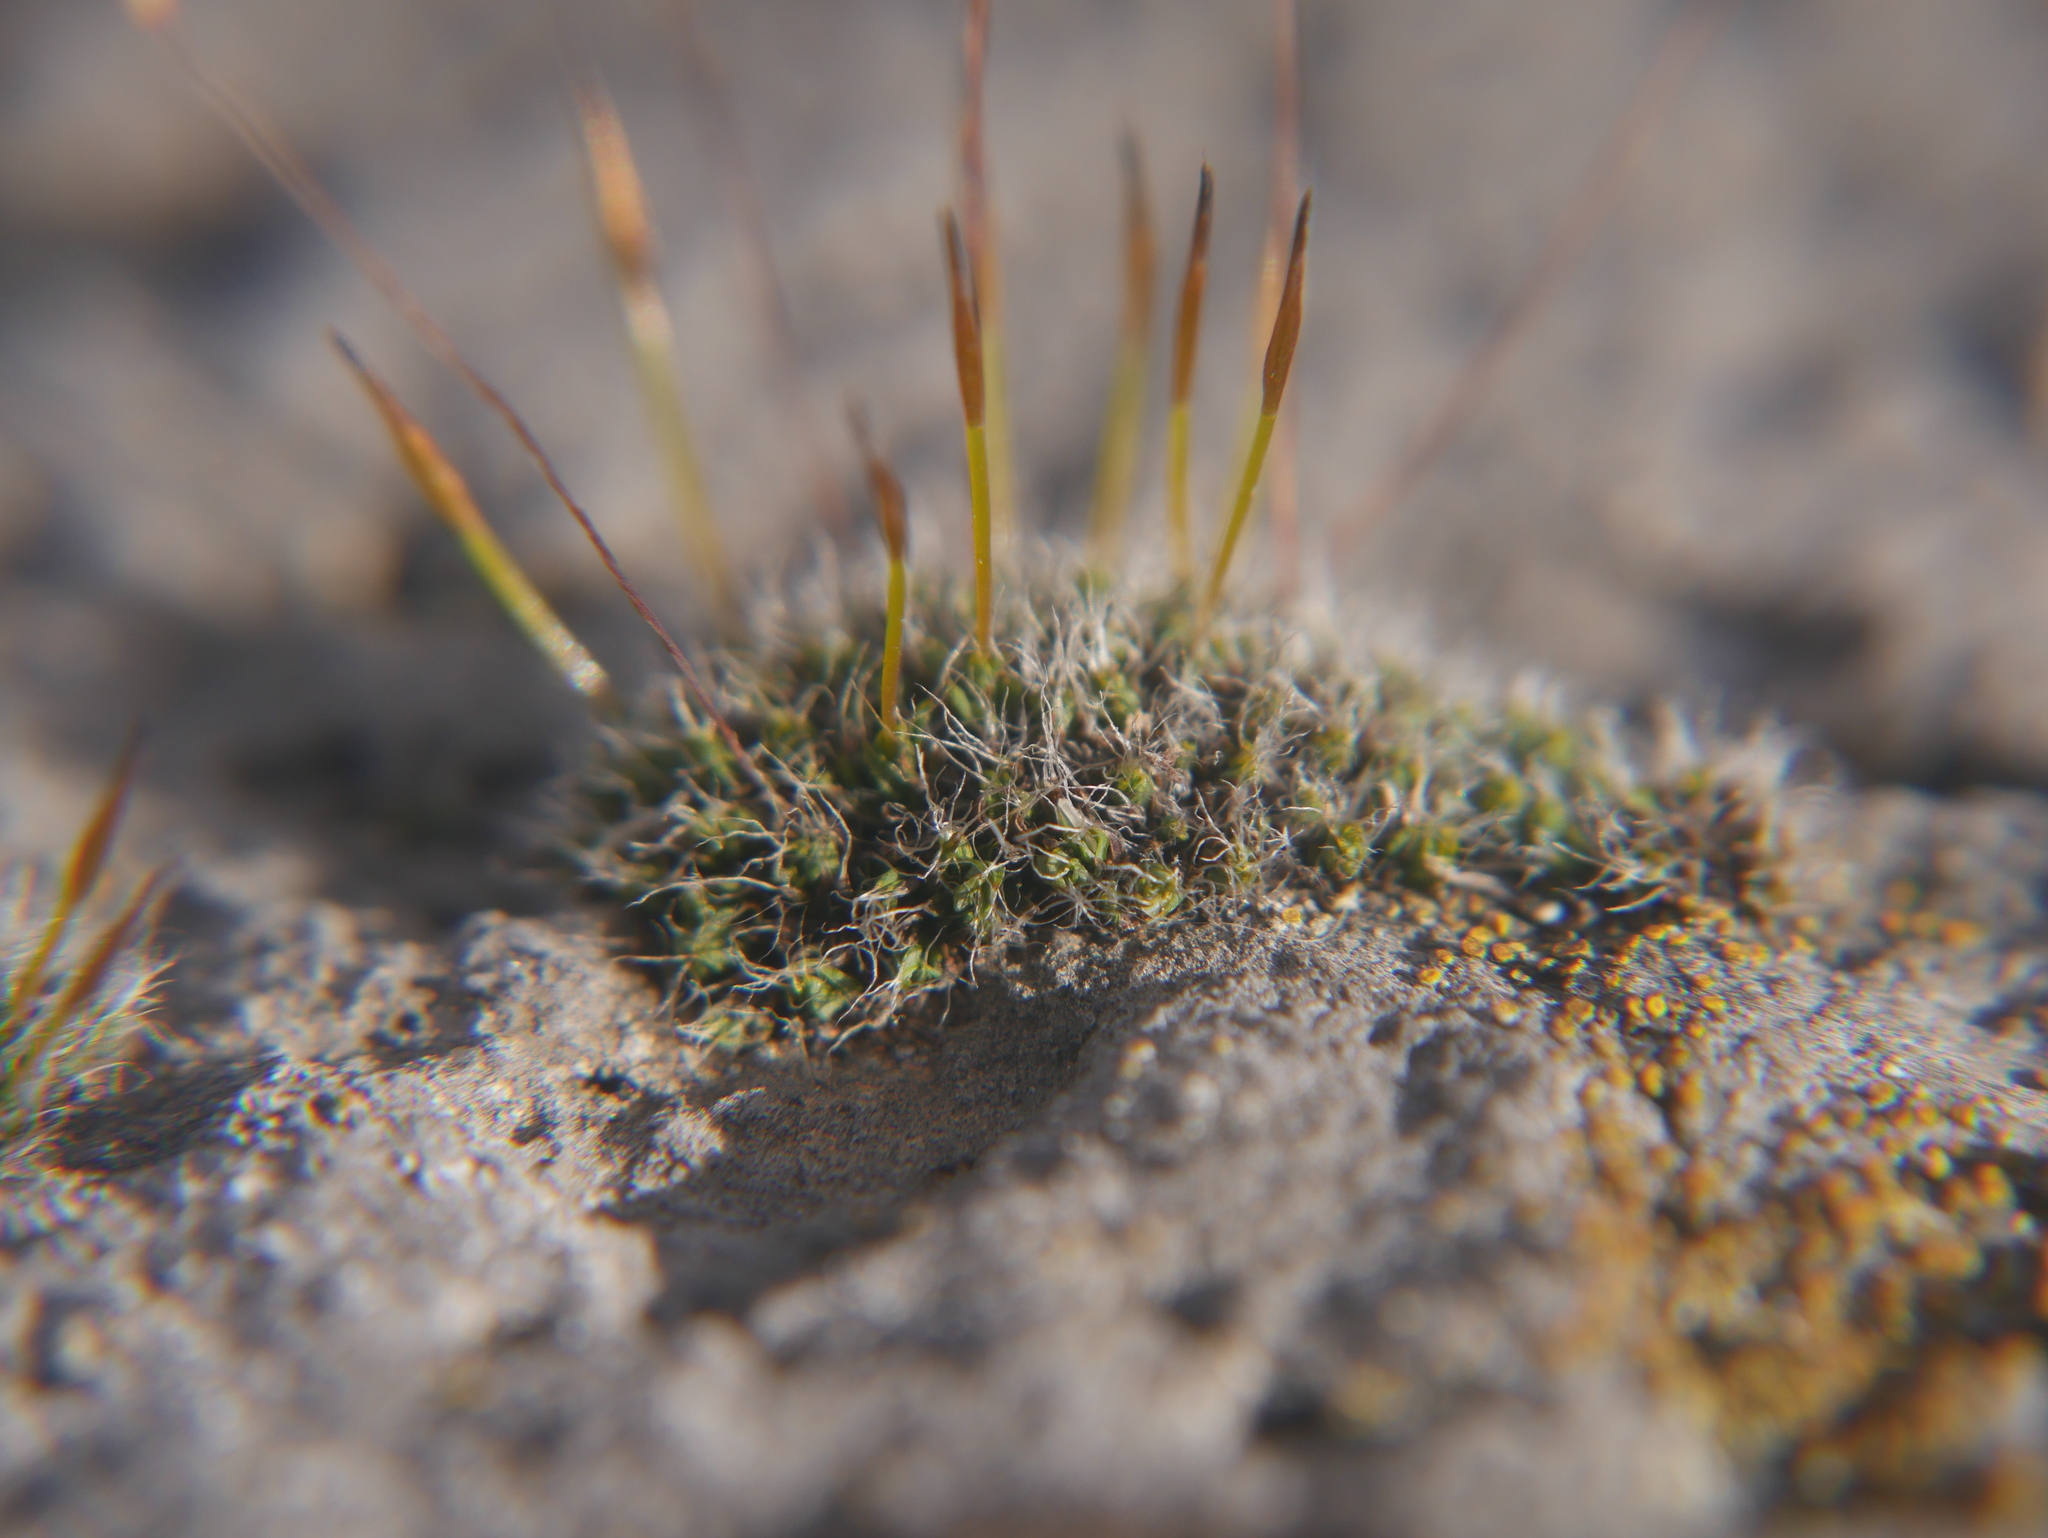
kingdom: Plantae
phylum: Bryophyta
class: Bryopsida
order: Pottiales
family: Pottiaceae
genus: Tortula
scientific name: Tortula muralis
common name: Wall screw-moss
